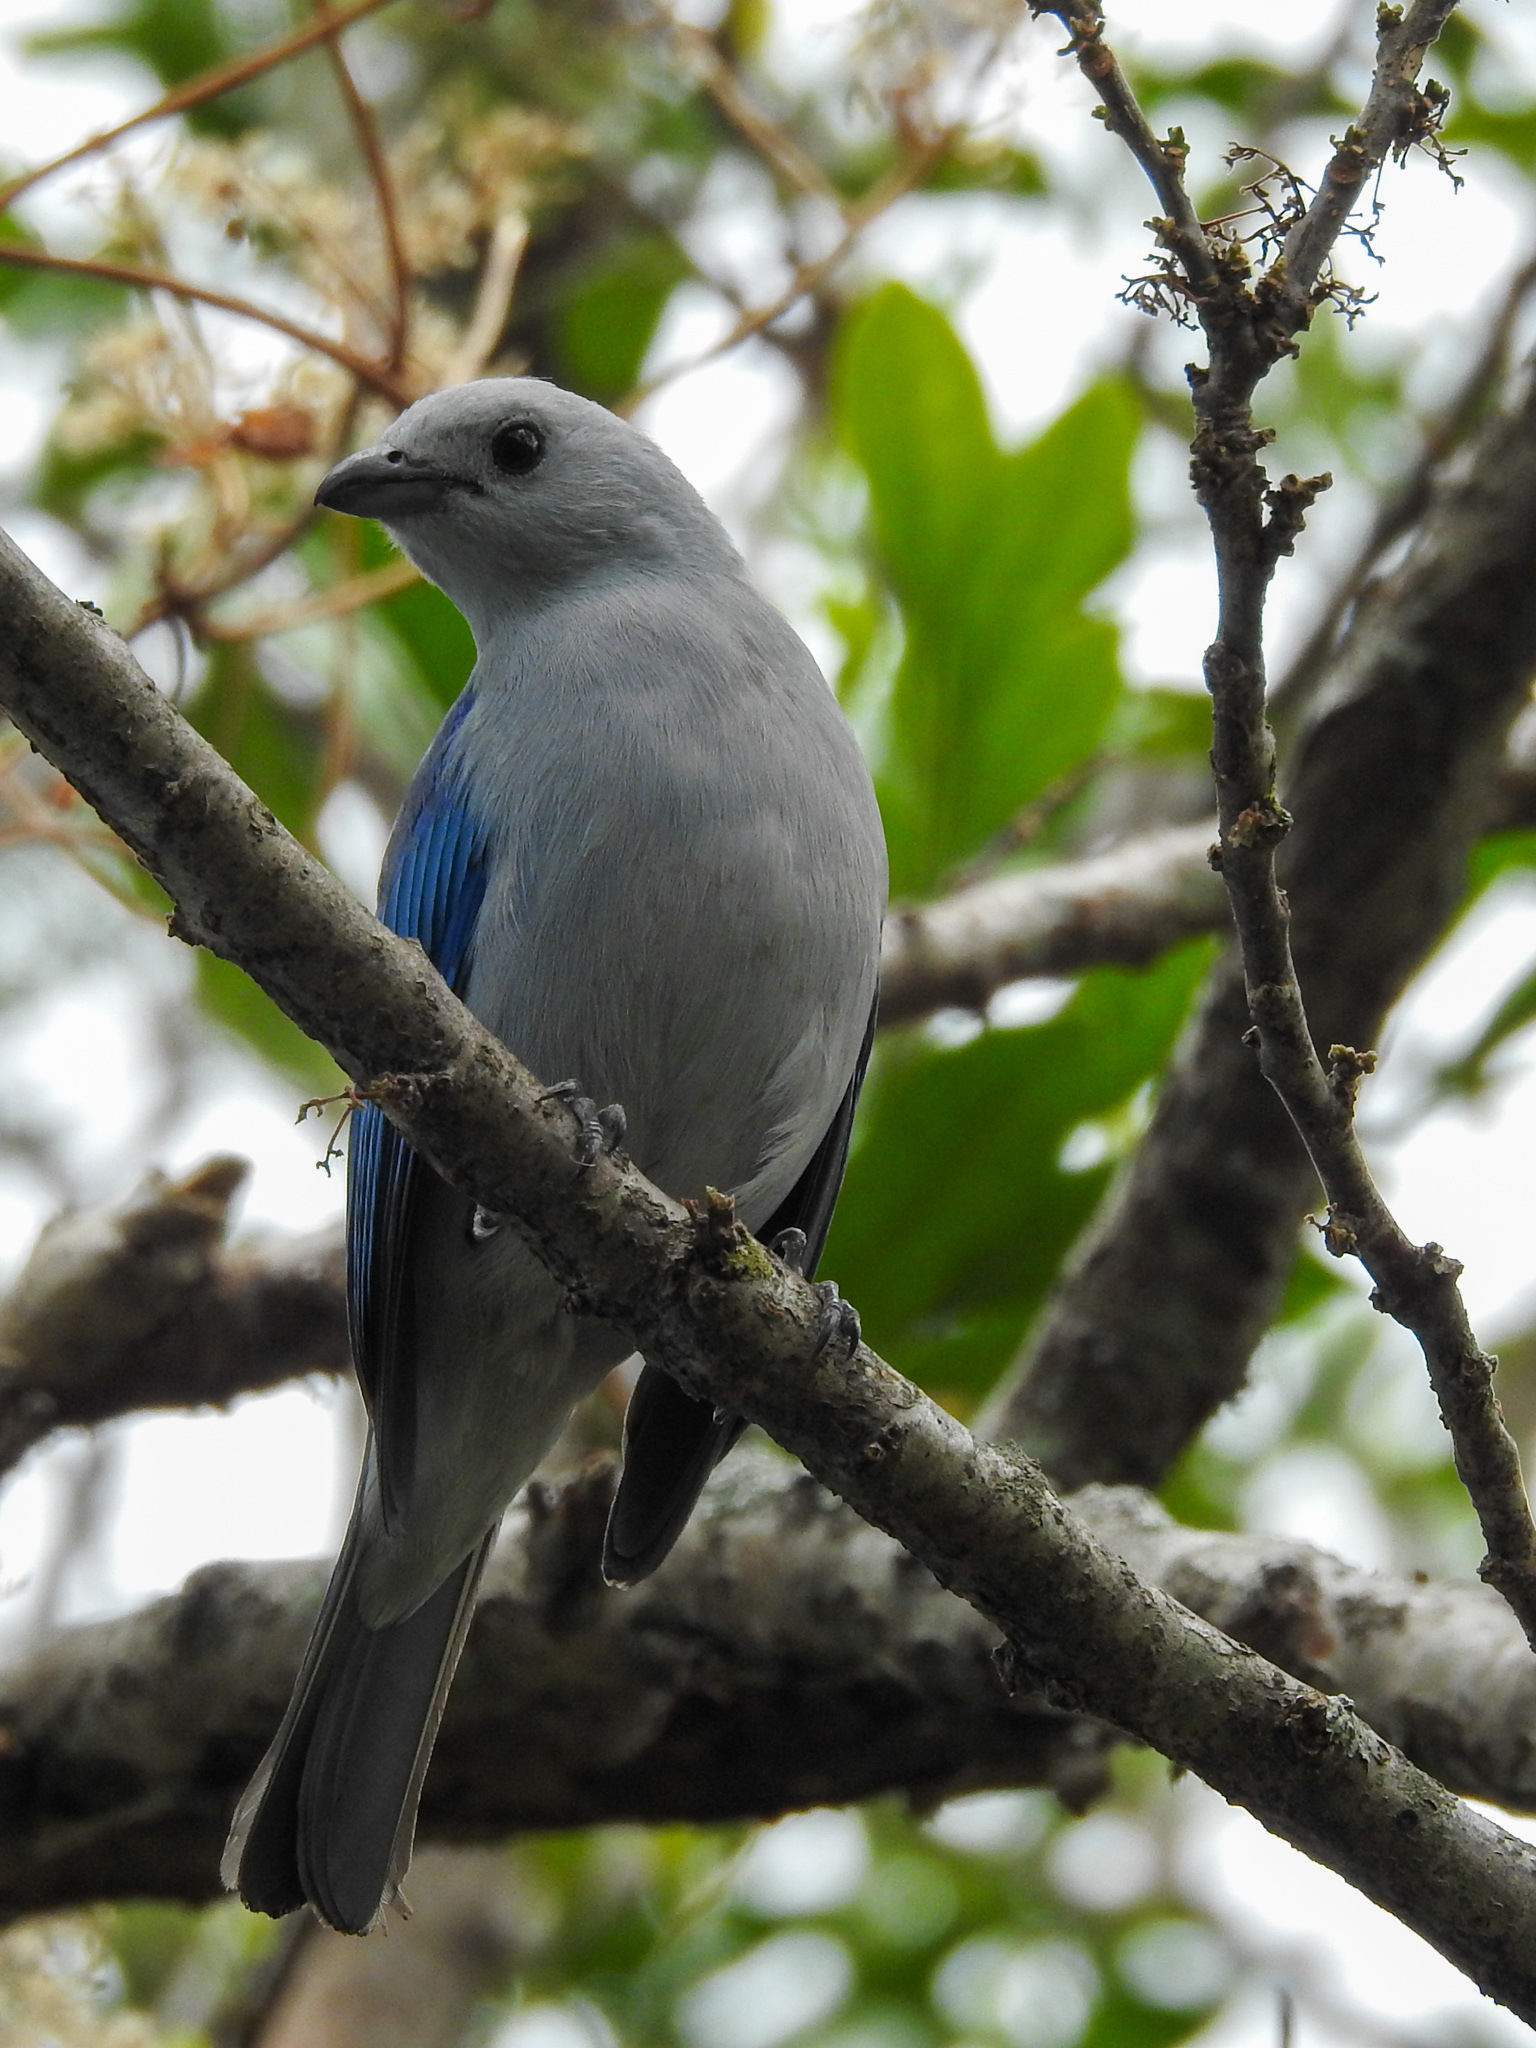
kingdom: Animalia
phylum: Chordata
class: Aves
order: Passeriformes
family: Thraupidae
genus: Thraupis
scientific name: Thraupis episcopus
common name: Blue-grey tanager
